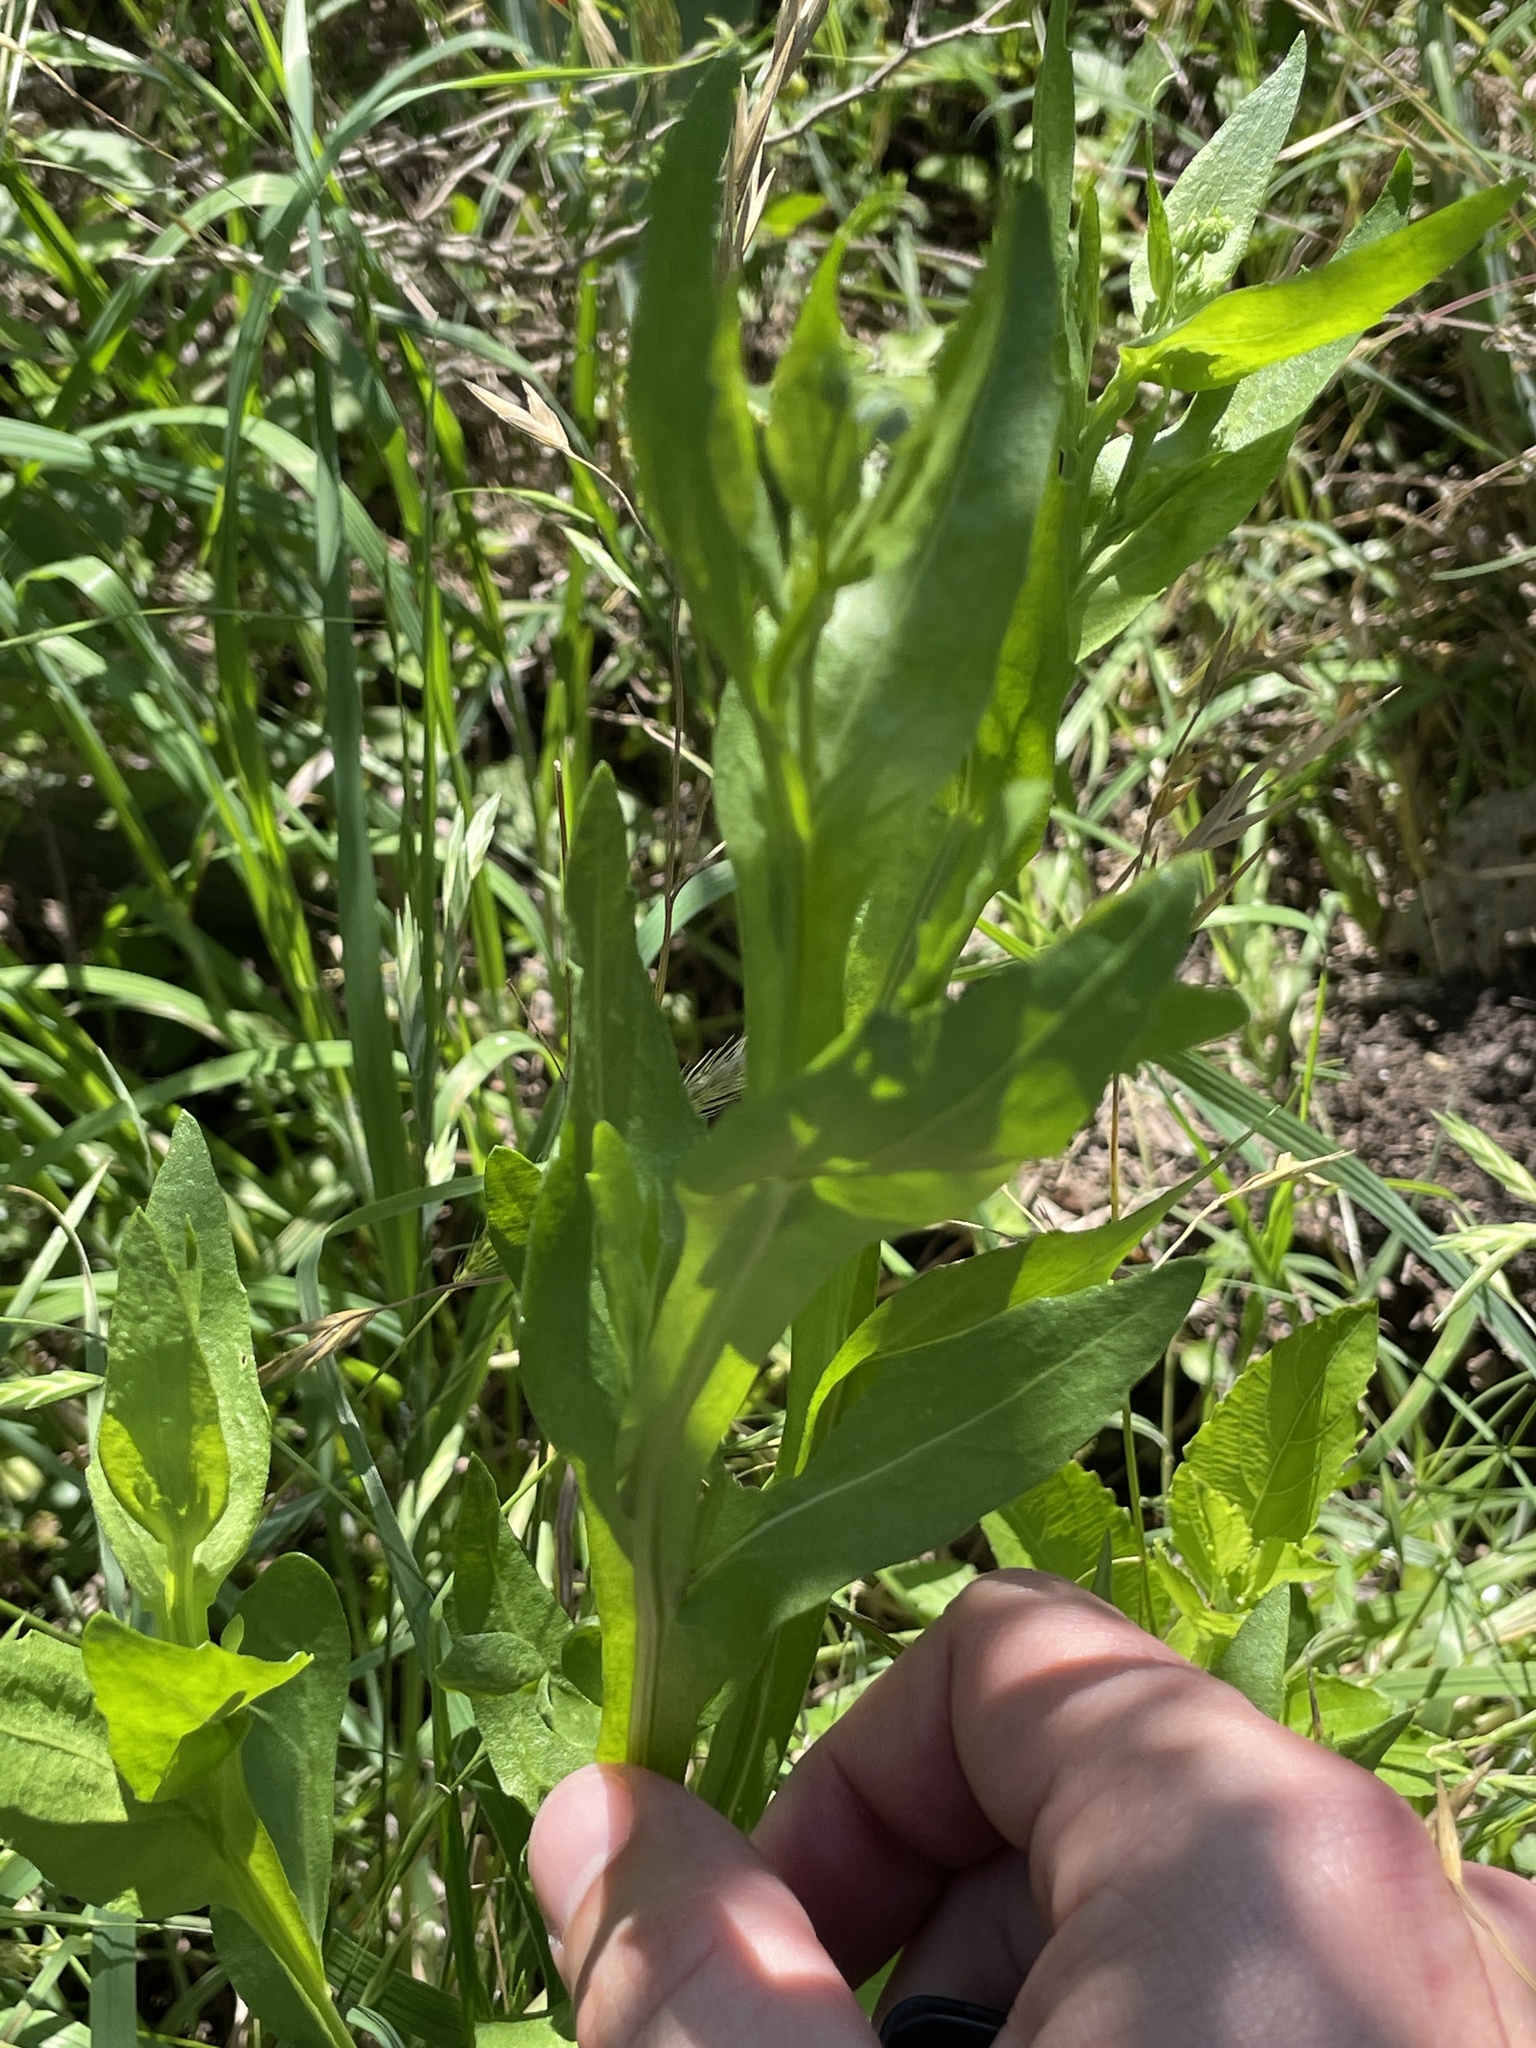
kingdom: Plantae
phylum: Tracheophyta
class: Magnoliopsida
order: Asterales
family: Asteraceae
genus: Helenium
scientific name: Helenium microcephalum
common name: Smallhead sneezeweed
